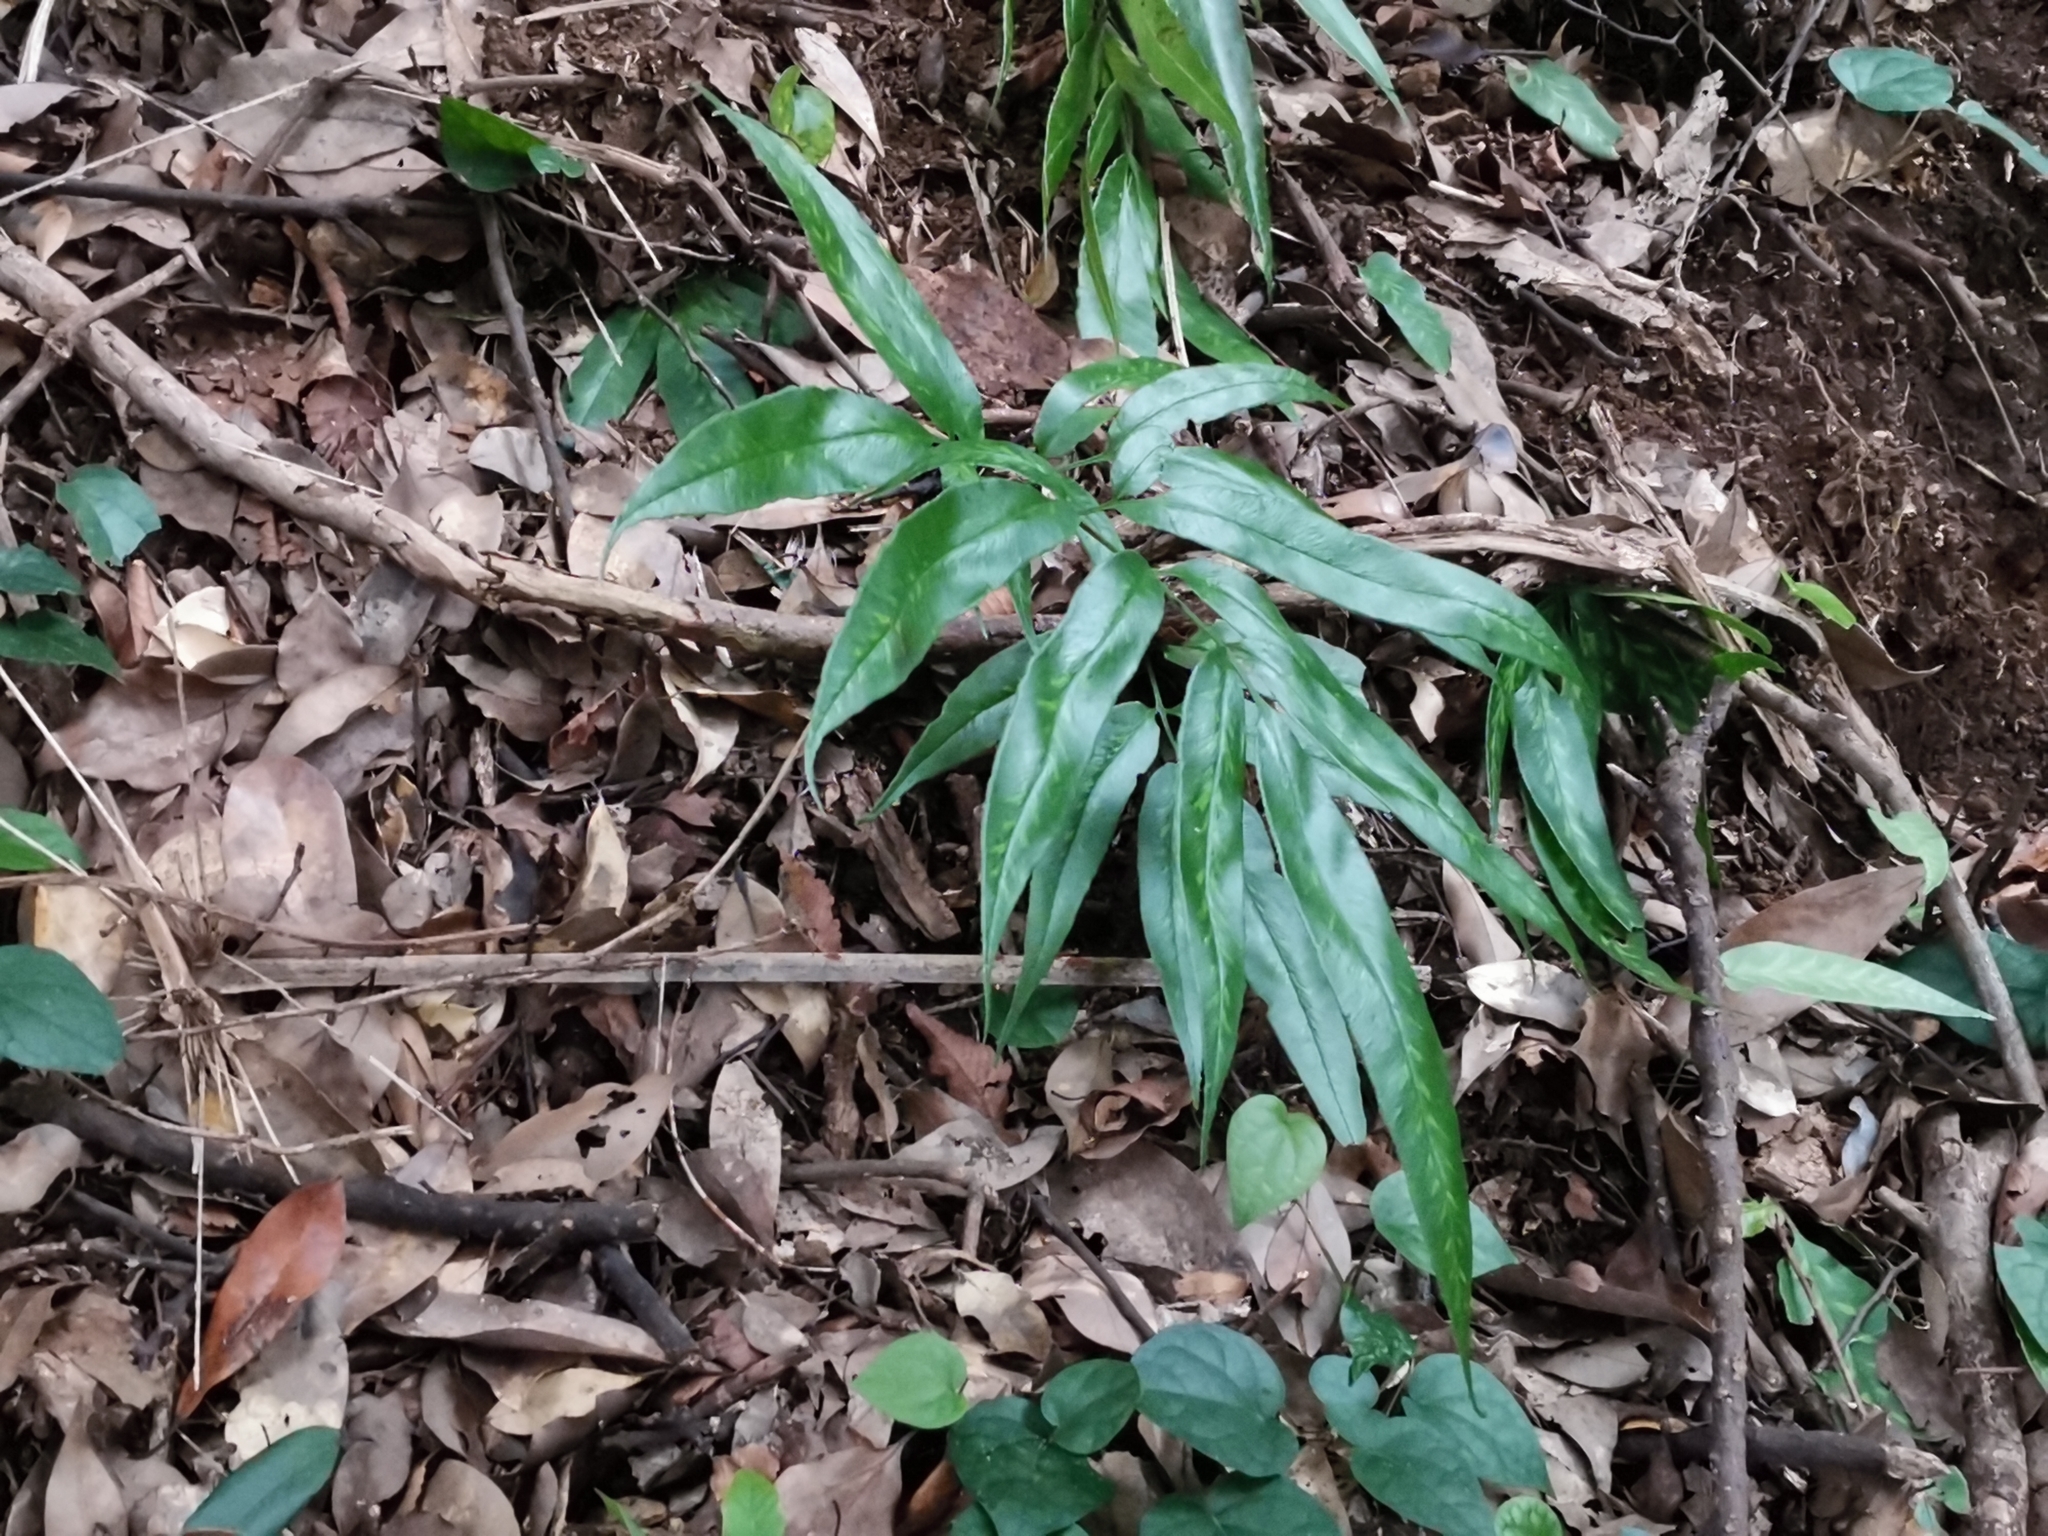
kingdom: Plantae
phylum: Tracheophyta
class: Polypodiopsida
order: Polypodiales
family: Pteridaceae
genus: Coniogramme
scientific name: Coniogramme japonica
